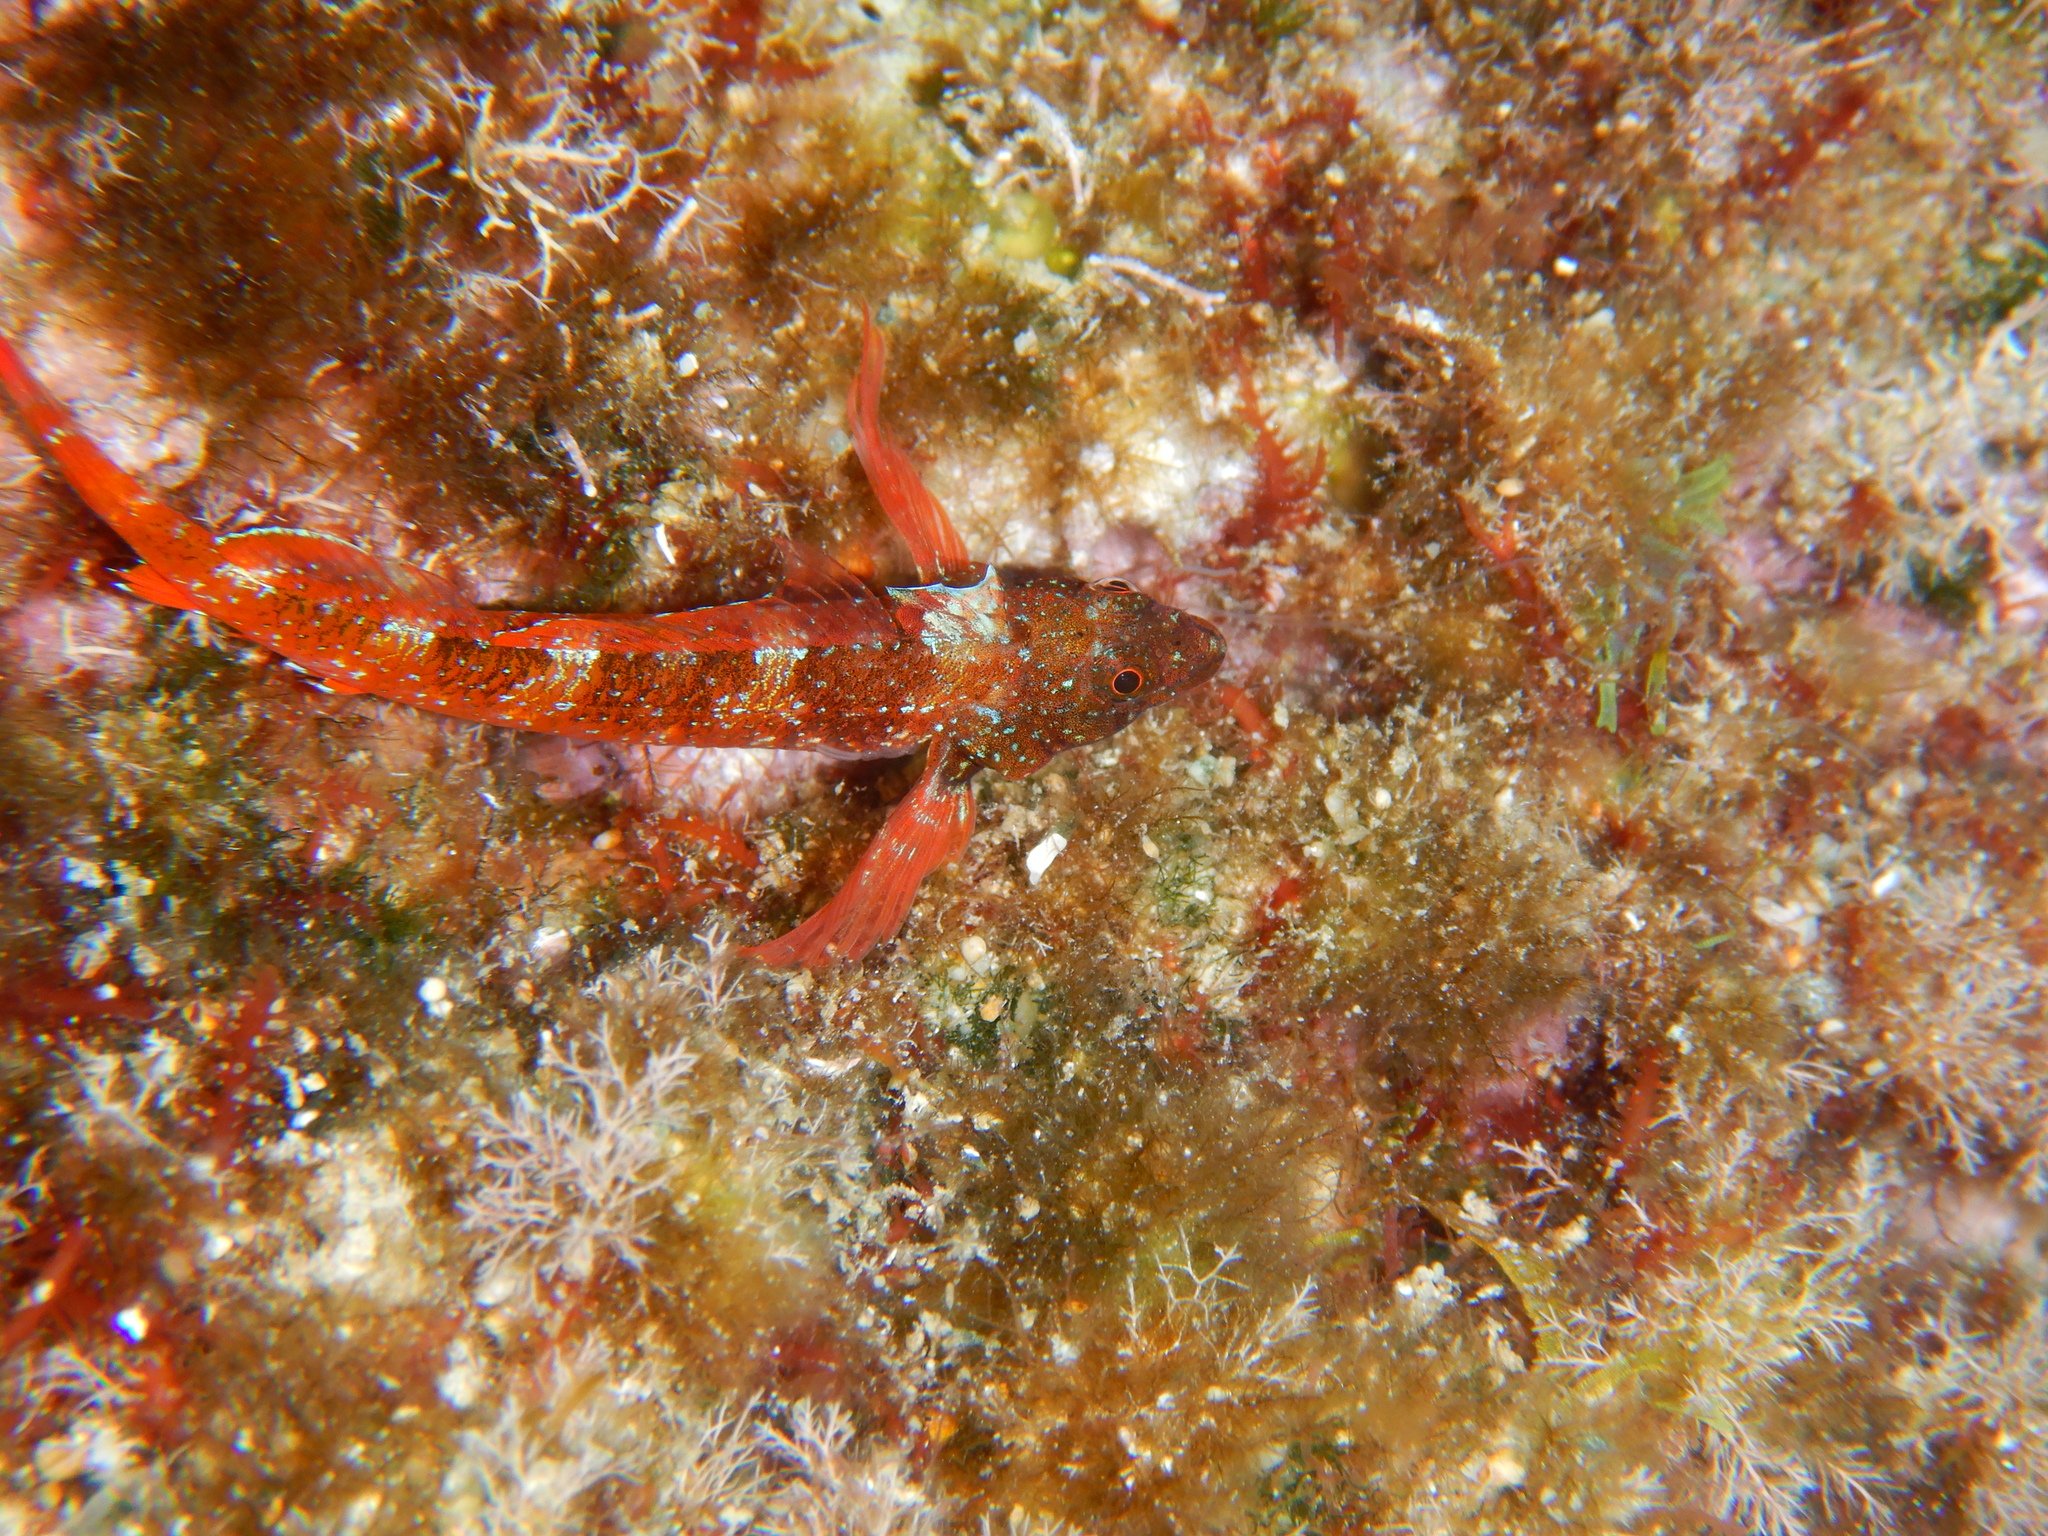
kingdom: Animalia
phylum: Chordata
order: Perciformes
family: Tripterygiidae
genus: Tripterygion
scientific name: Tripterygion tripteronotum
